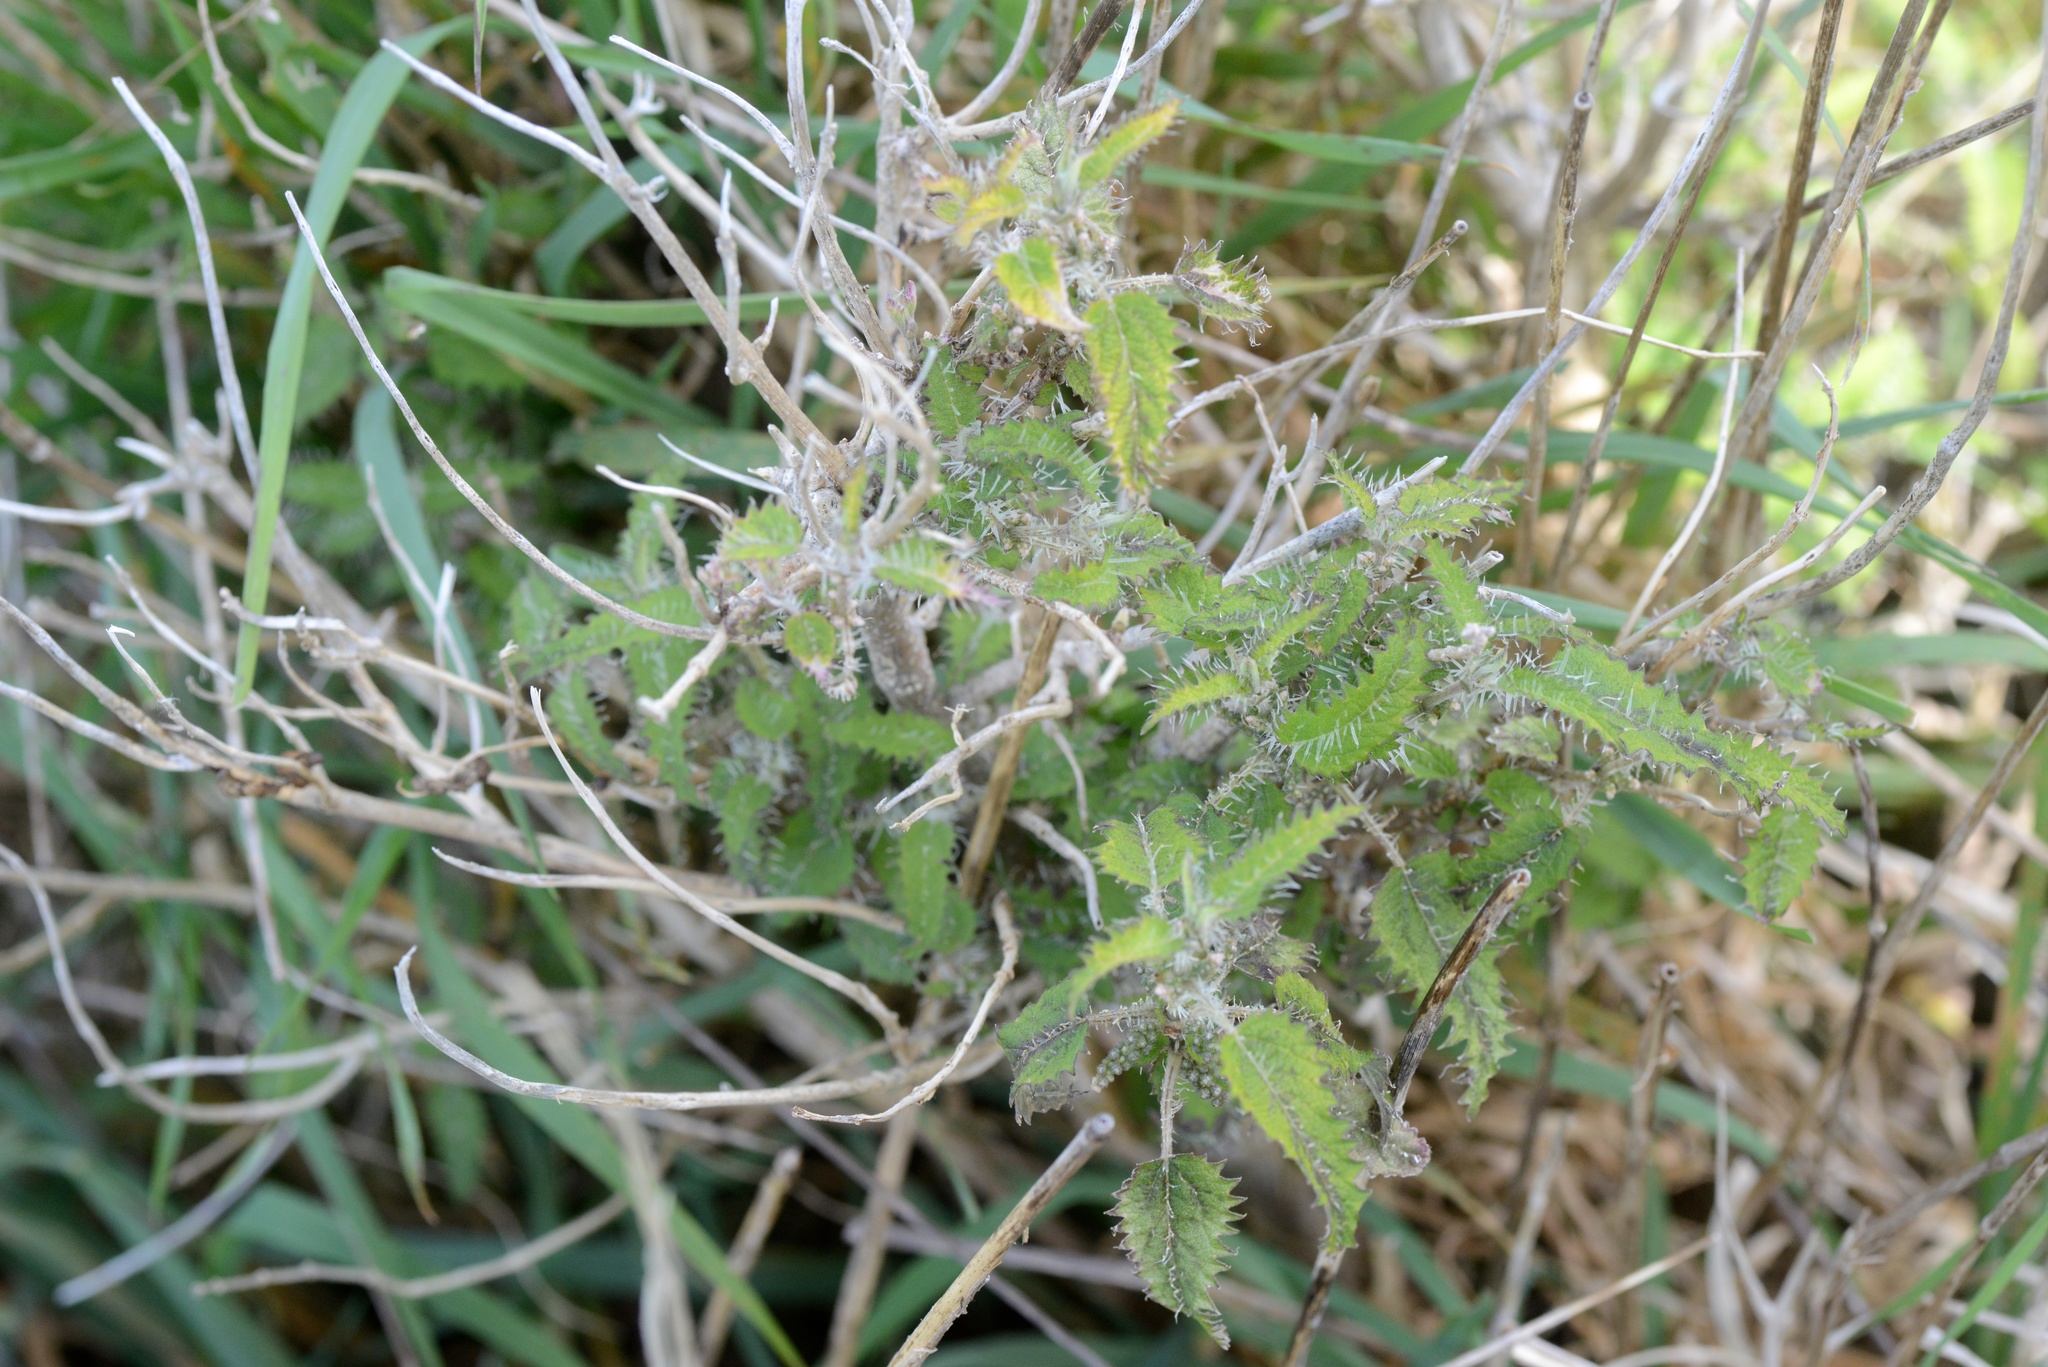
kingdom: Plantae
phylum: Tracheophyta
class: Magnoliopsida
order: Rosales
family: Urticaceae
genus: Urtica
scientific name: Urtica ferox
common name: Tree nettle
